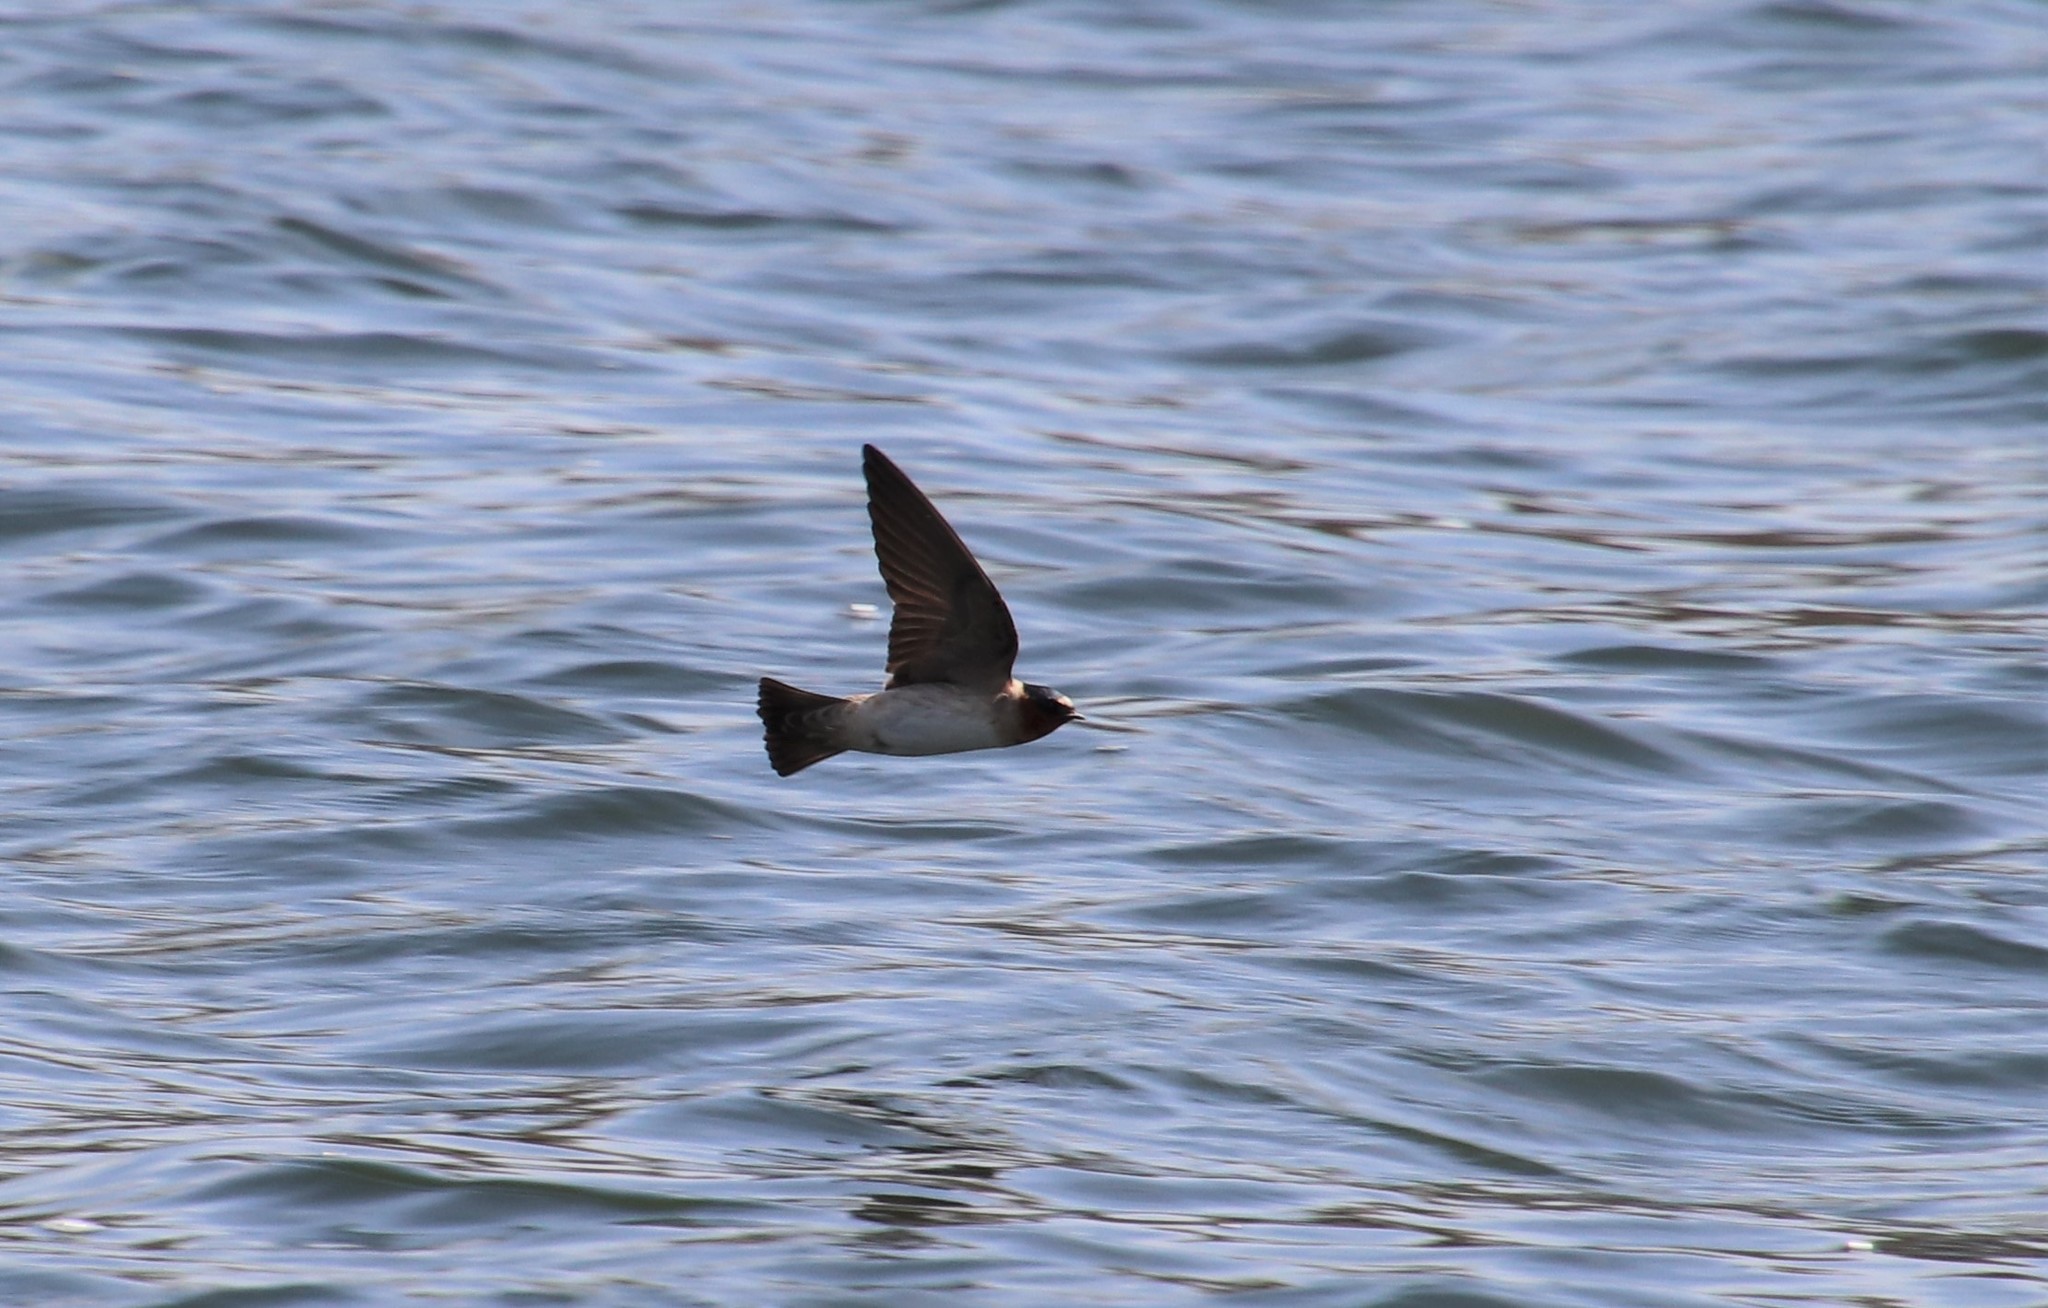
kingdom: Animalia
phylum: Chordata
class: Aves
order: Passeriformes
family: Hirundinidae
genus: Petrochelidon
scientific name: Petrochelidon pyrrhonota
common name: American cliff swallow
